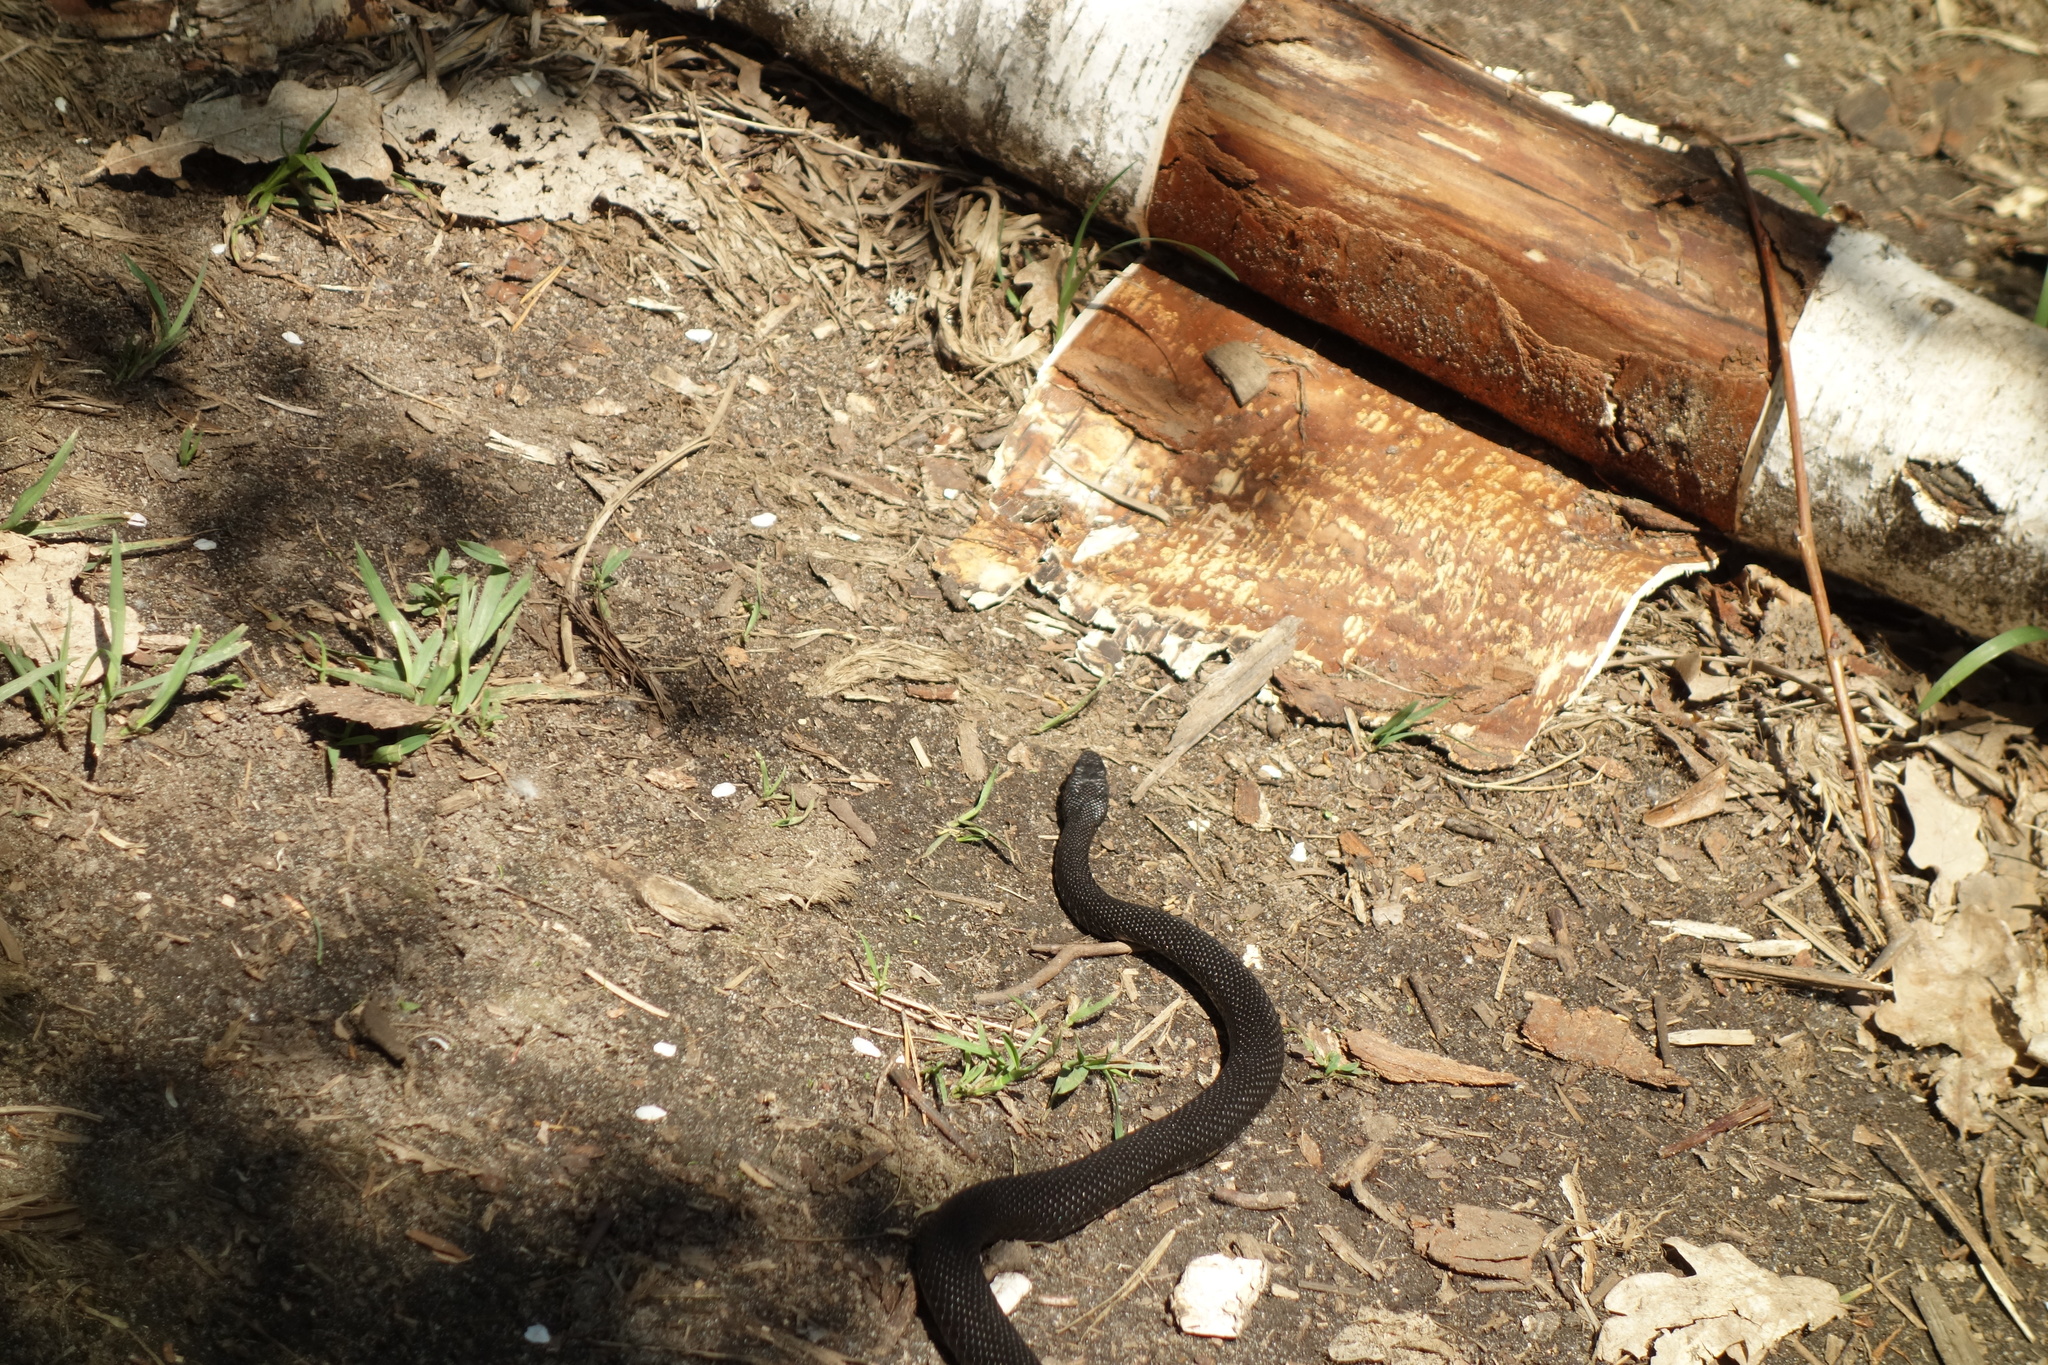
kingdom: Animalia
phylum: Chordata
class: Squamata
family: Viperidae
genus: Vipera
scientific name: Vipera nikolskii
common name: Adder
